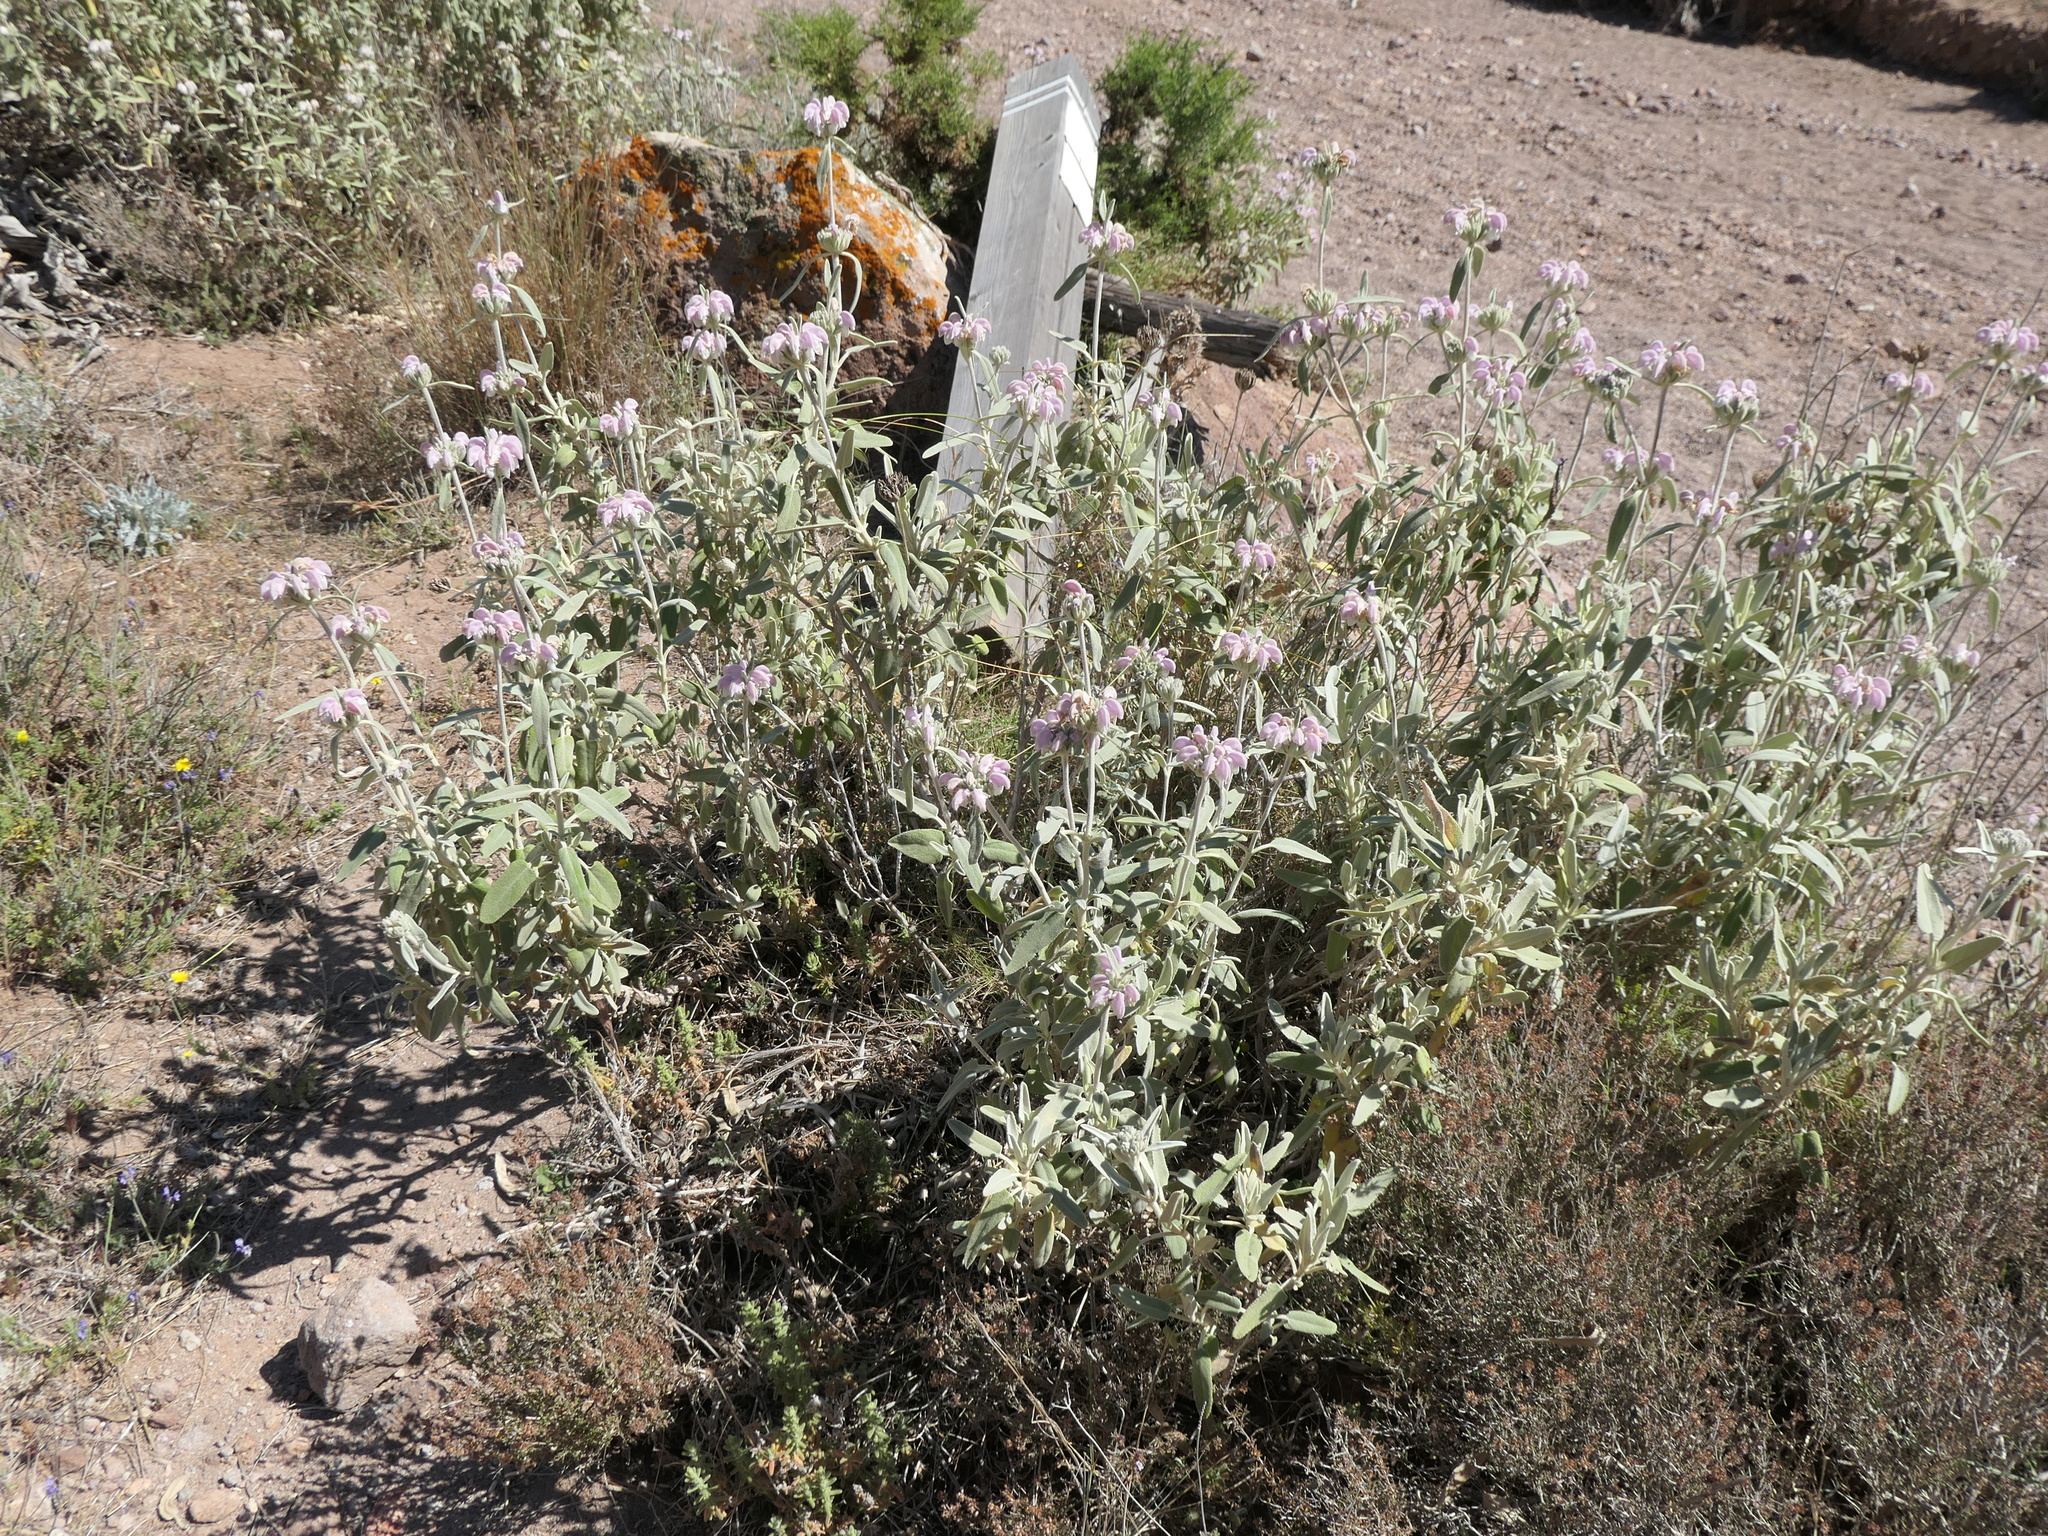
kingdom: Plantae
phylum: Tracheophyta
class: Magnoliopsida
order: Lamiales
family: Lamiaceae
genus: Phlomis
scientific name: Phlomis purpurea
